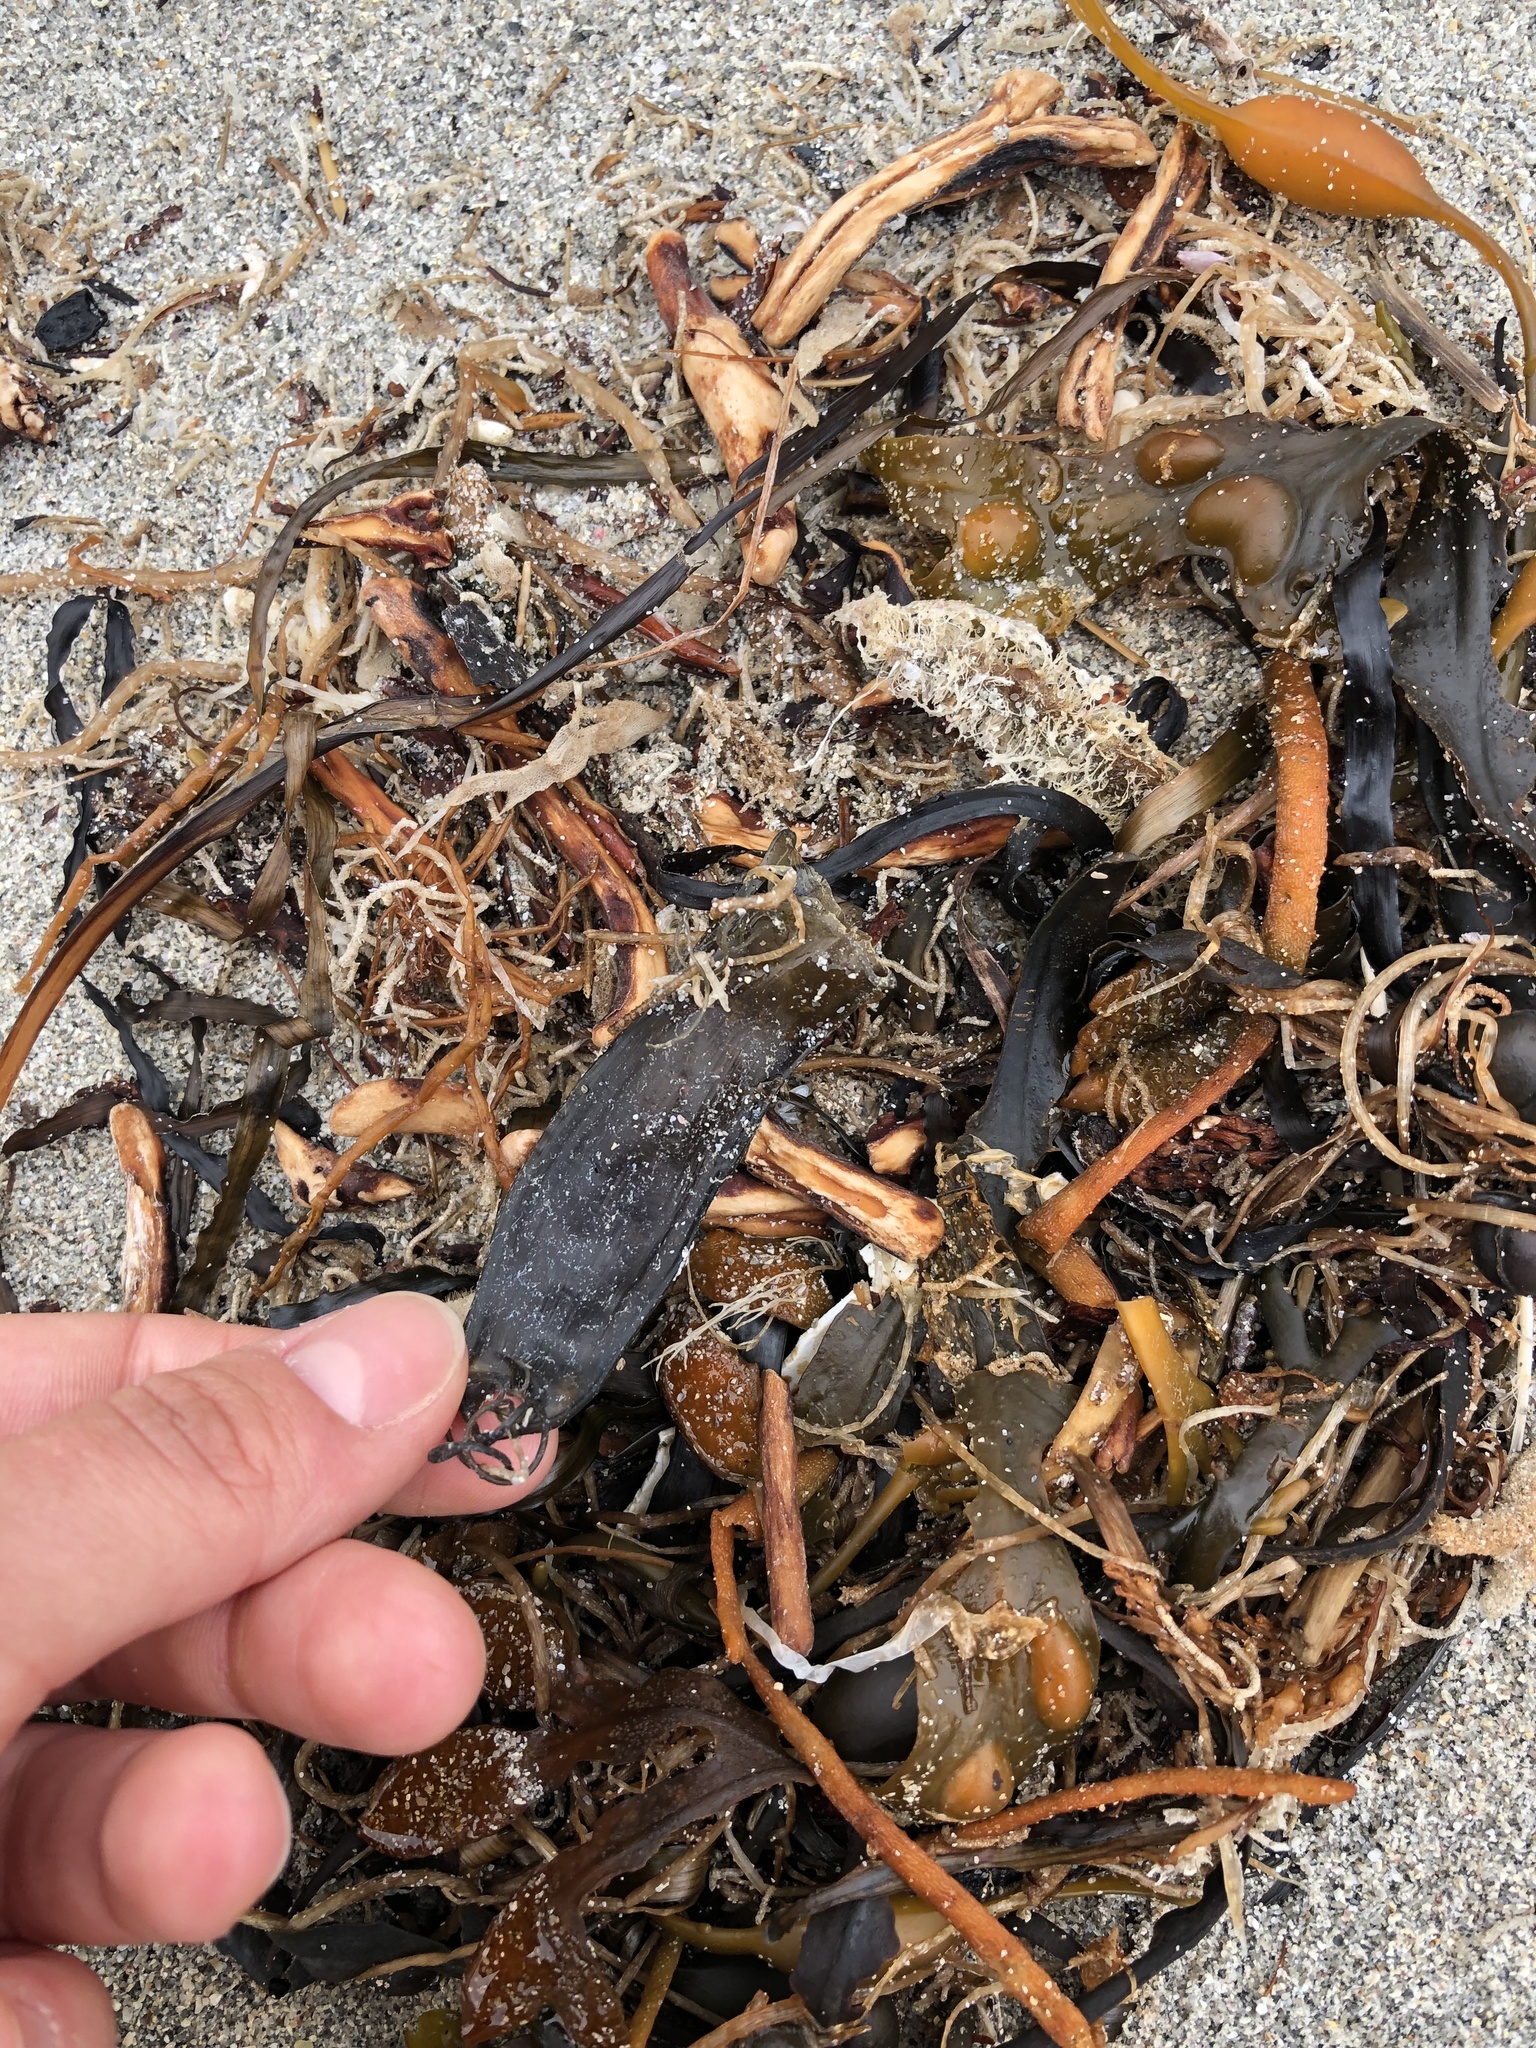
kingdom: Animalia
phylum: Chordata
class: Elasmobranchii
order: Carcharhiniformes
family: Scyliorhinidae
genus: Scyliorhinus
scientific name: Scyliorhinus canicula
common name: Lesser spotted dogfish
